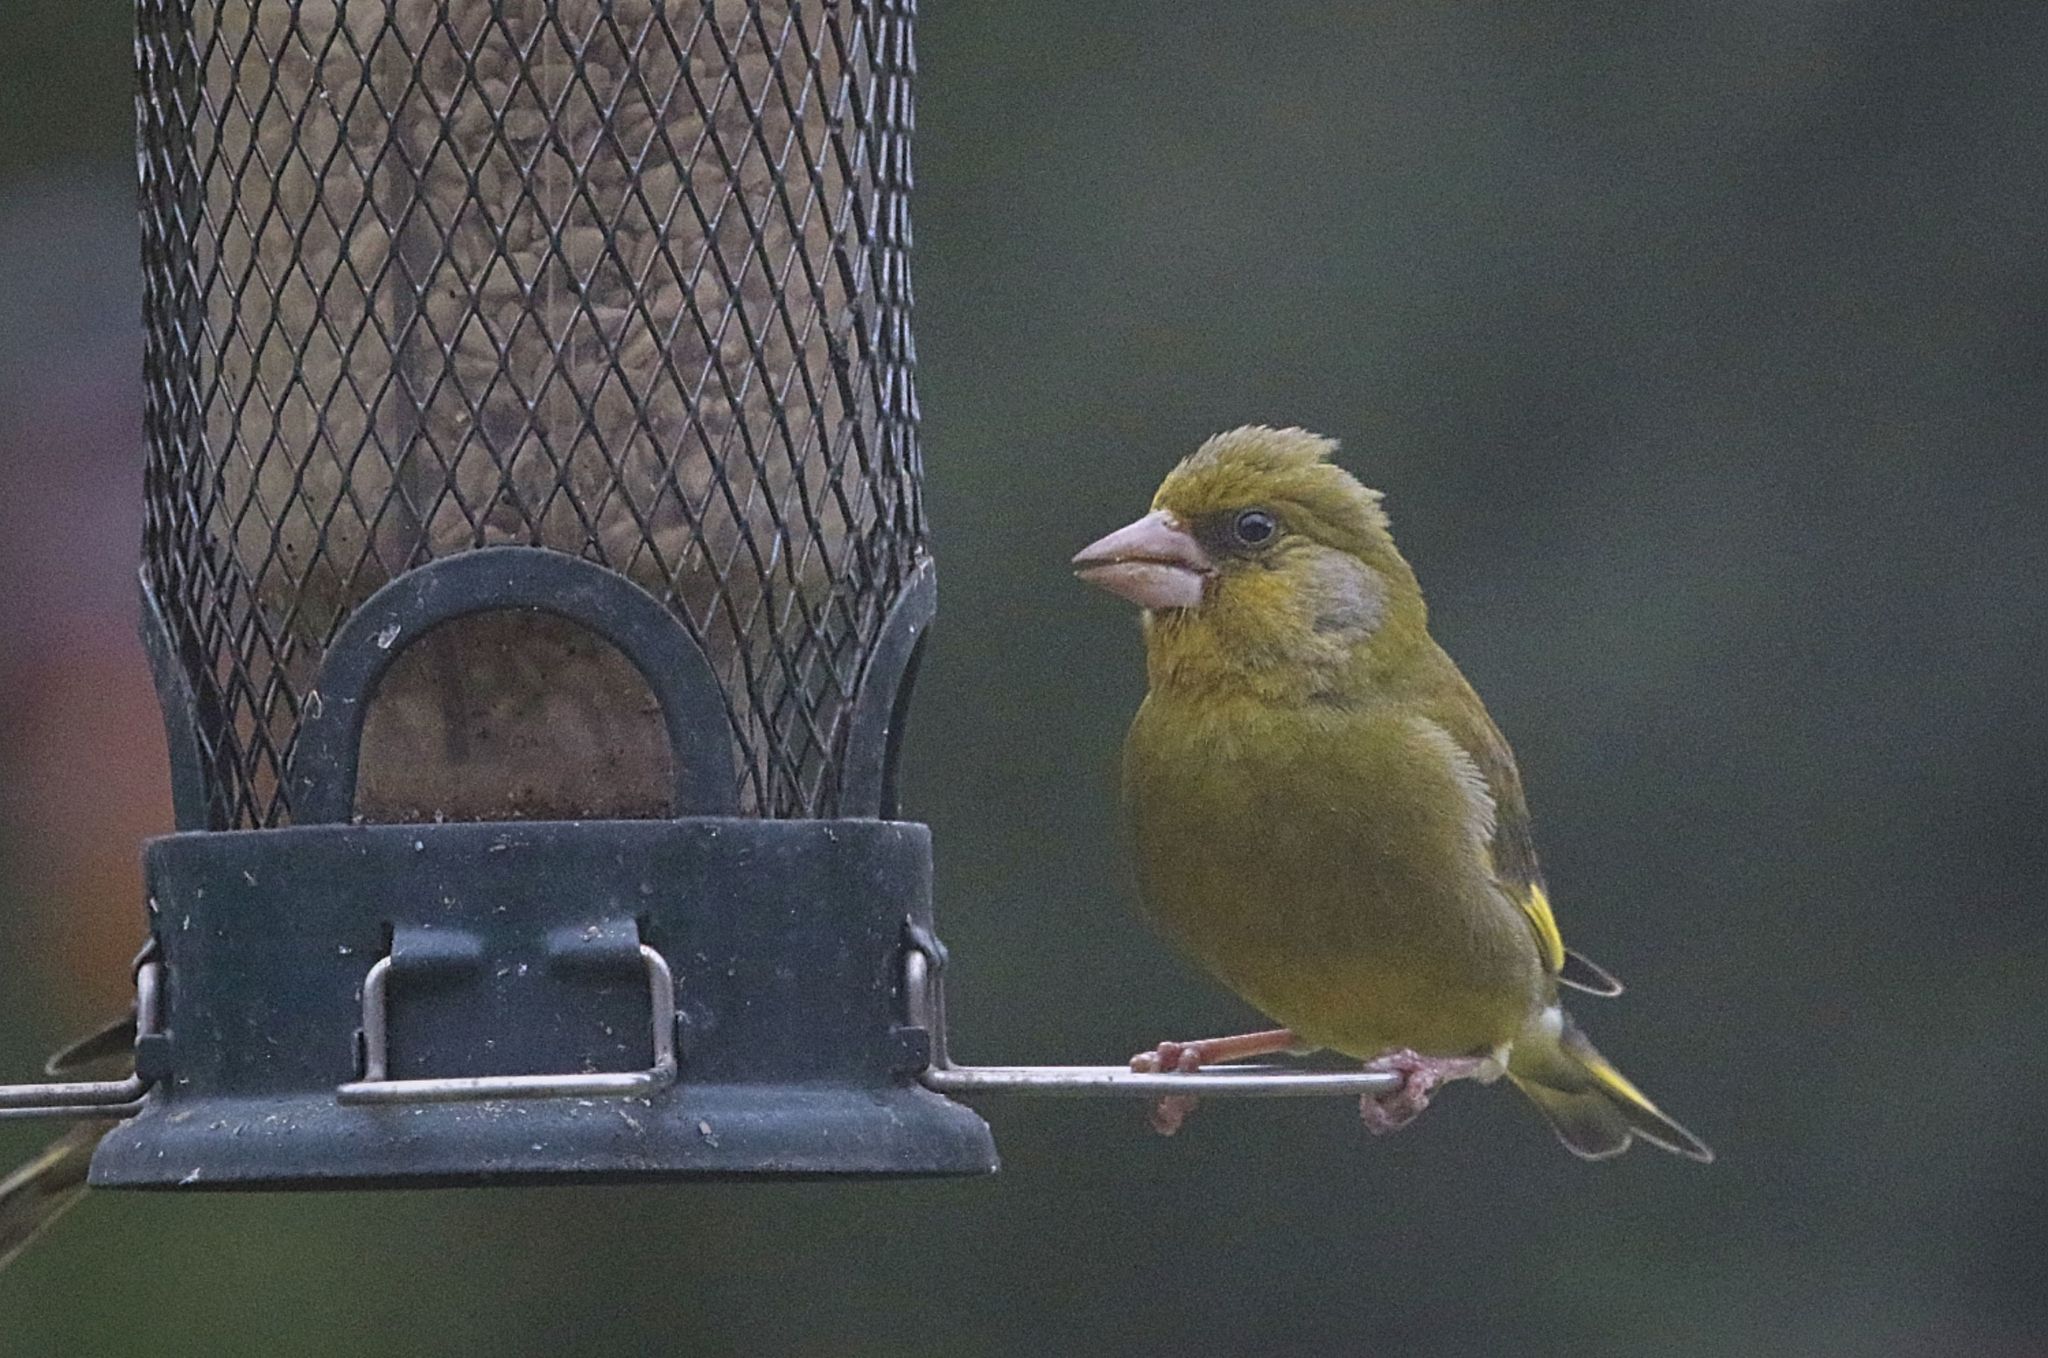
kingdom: Plantae
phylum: Tracheophyta
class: Liliopsida
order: Poales
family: Poaceae
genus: Chloris
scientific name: Chloris chloris
